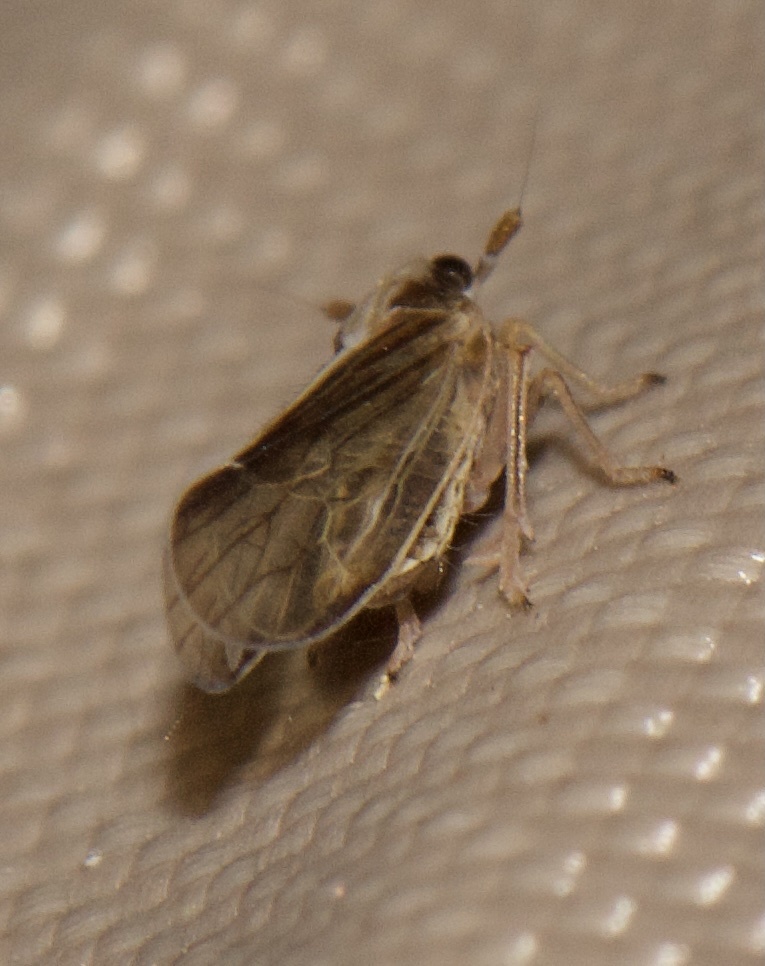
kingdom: Animalia
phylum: Arthropoda
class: Insecta
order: Hemiptera
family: Delphacidae
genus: Perkinsiella
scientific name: Perkinsiella saccharicida
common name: Sugarcane leafhopper
